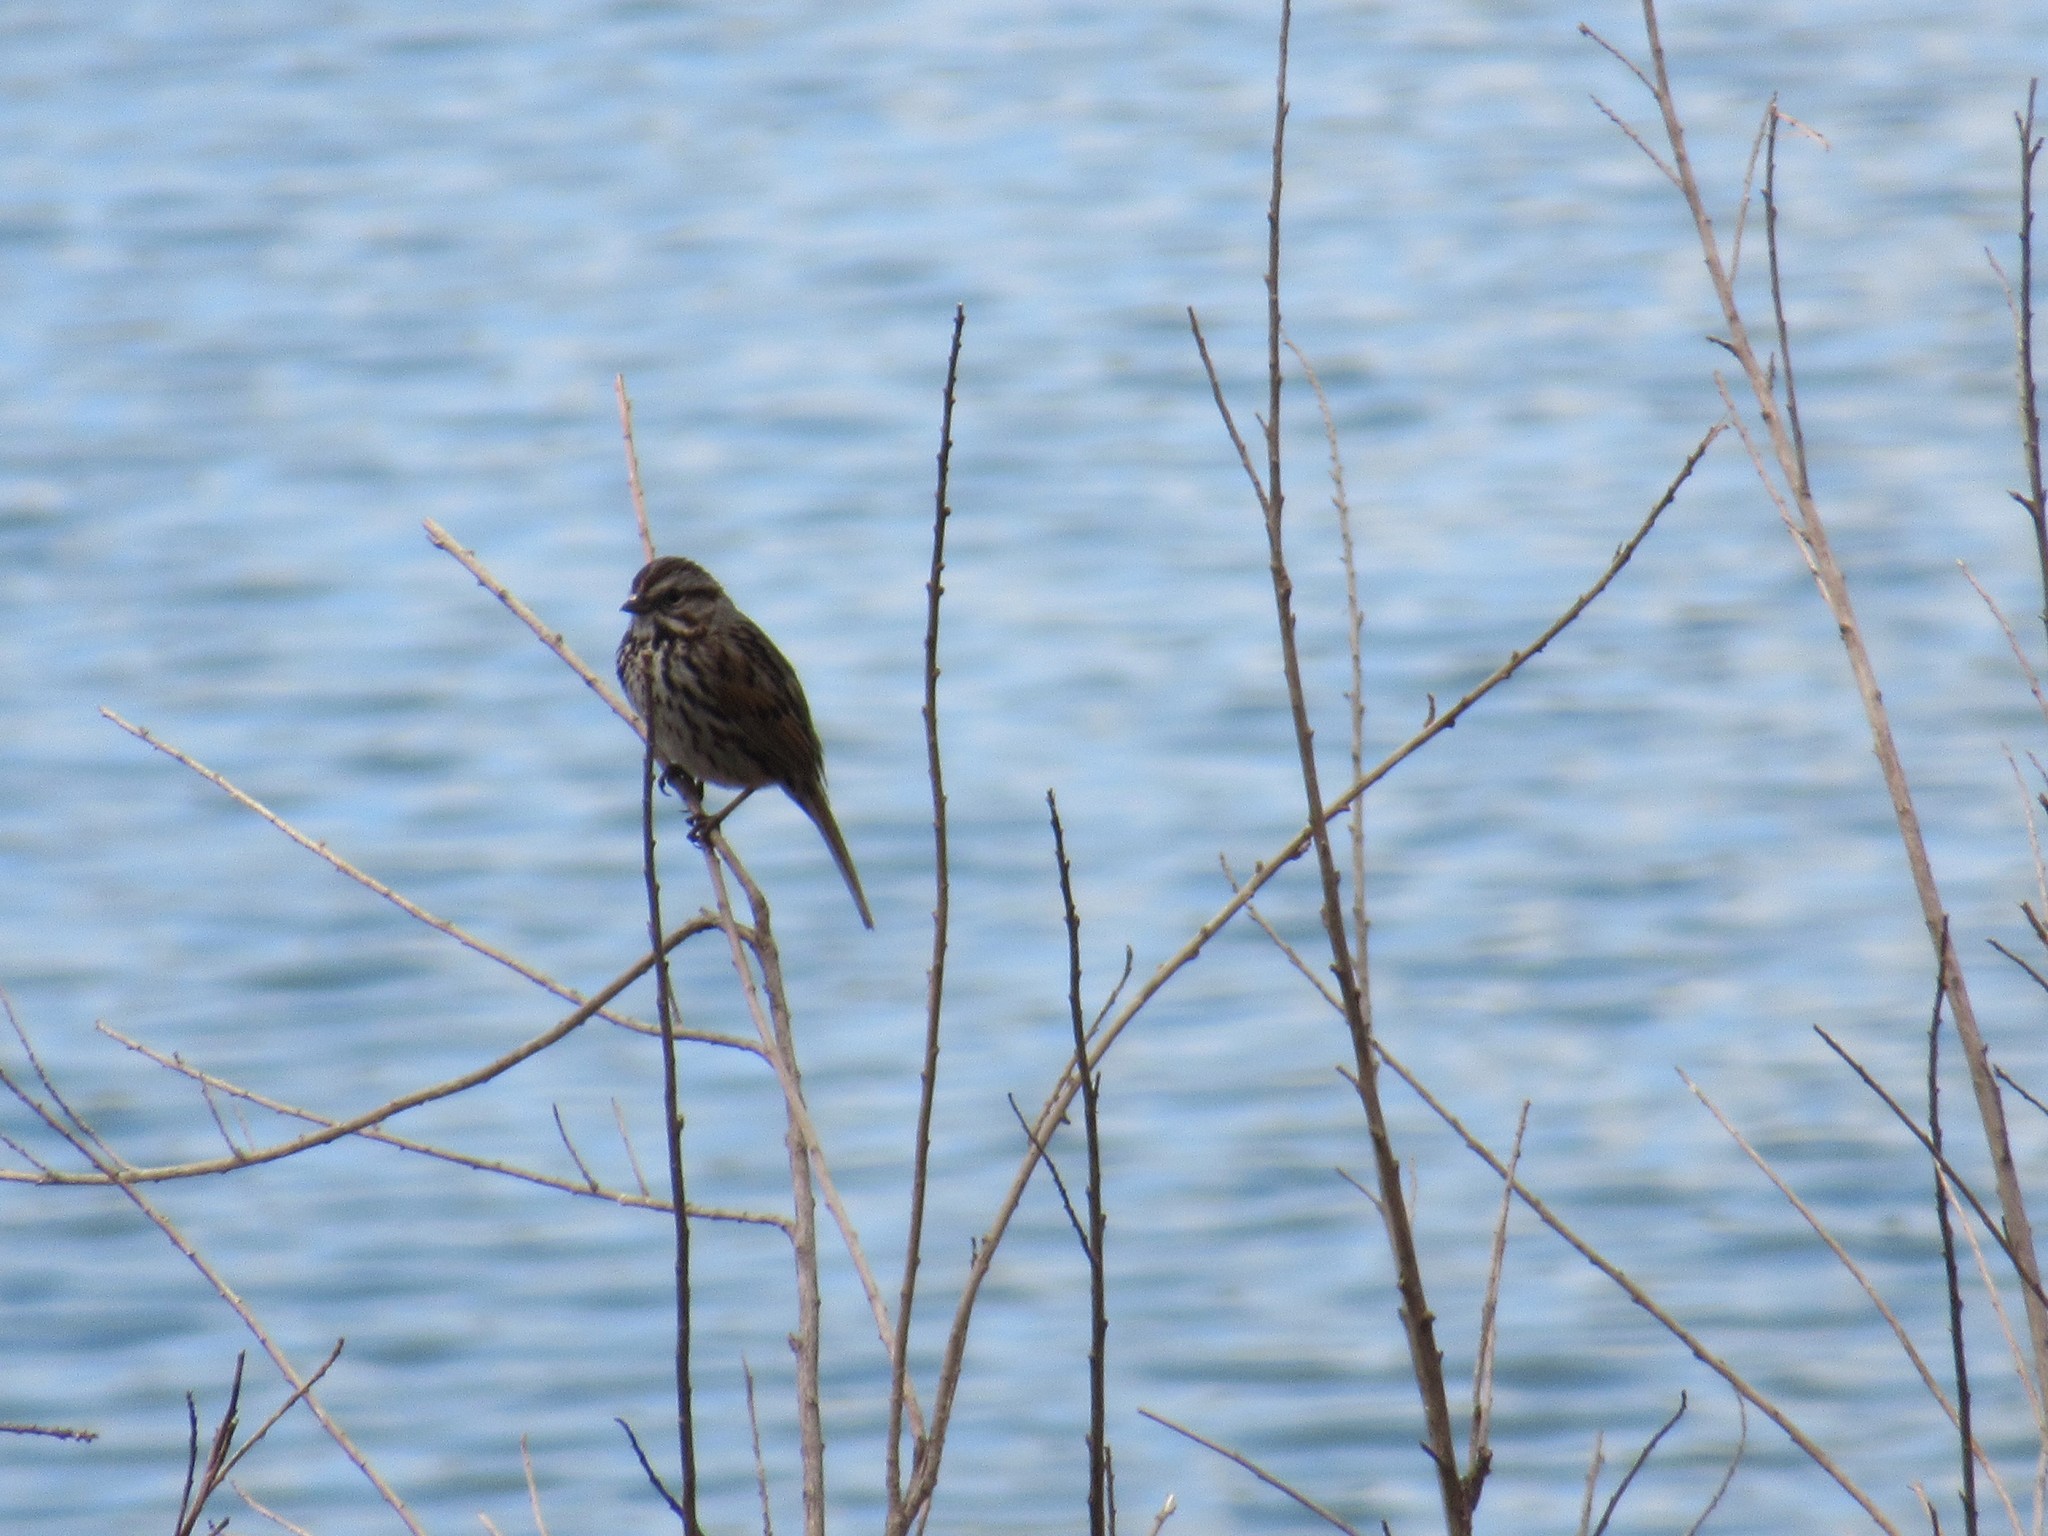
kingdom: Animalia
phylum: Chordata
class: Aves
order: Passeriformes
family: Passerellidae
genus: Melospiza
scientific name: Melospiza melodia
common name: Song sparrow
